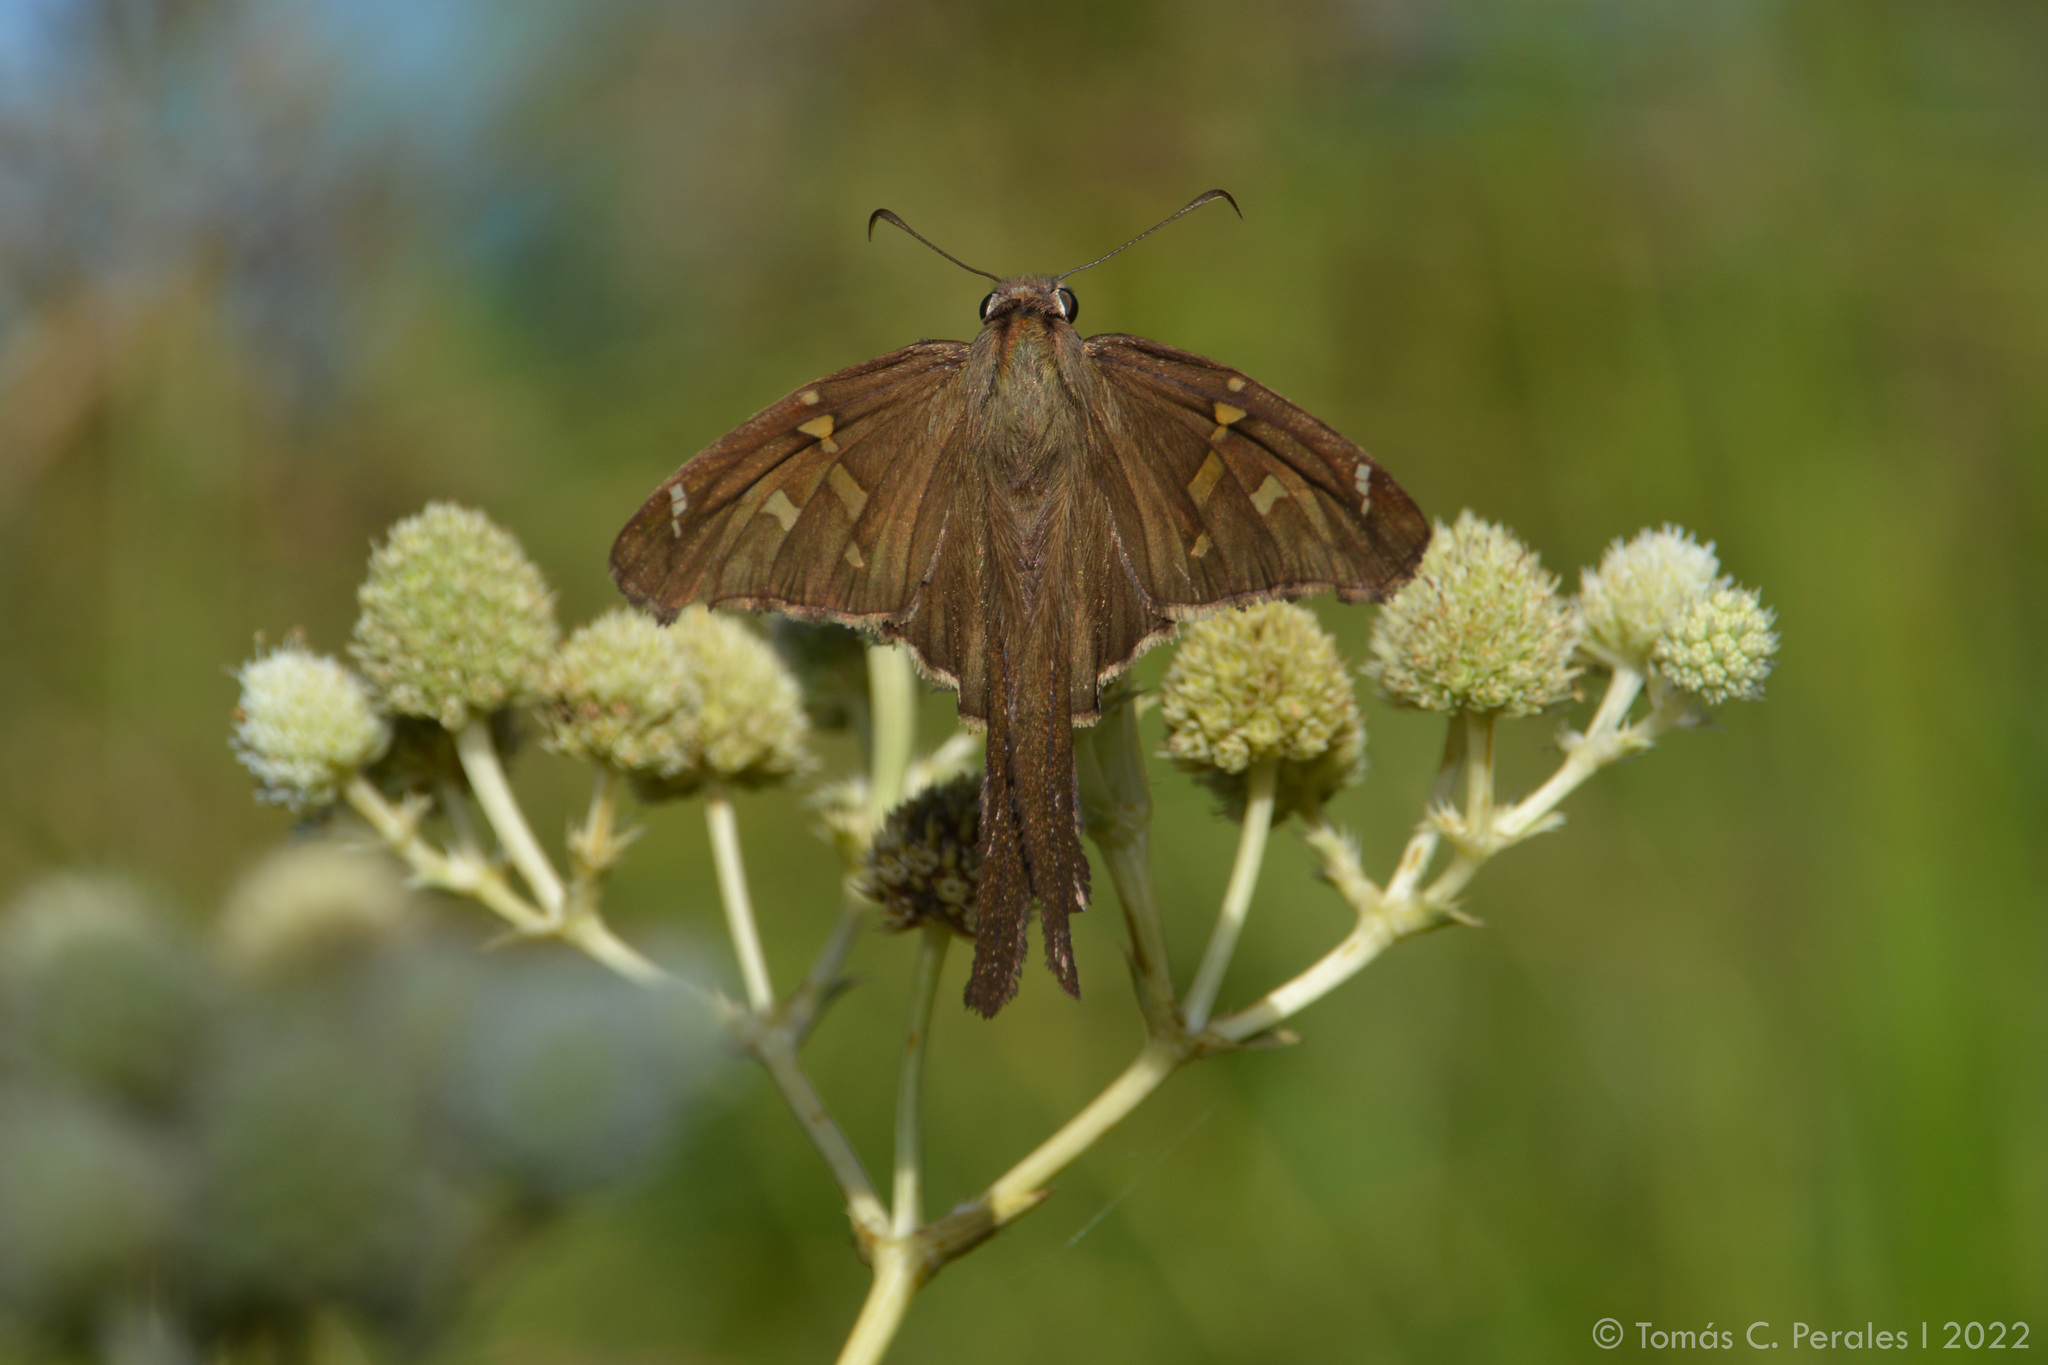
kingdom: Animalia
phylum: Arthropoda
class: Insecta
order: Lepidoptera
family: Hesperiidae
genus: Chioides
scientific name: Chioides catillus
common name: Silverbanded skipper
